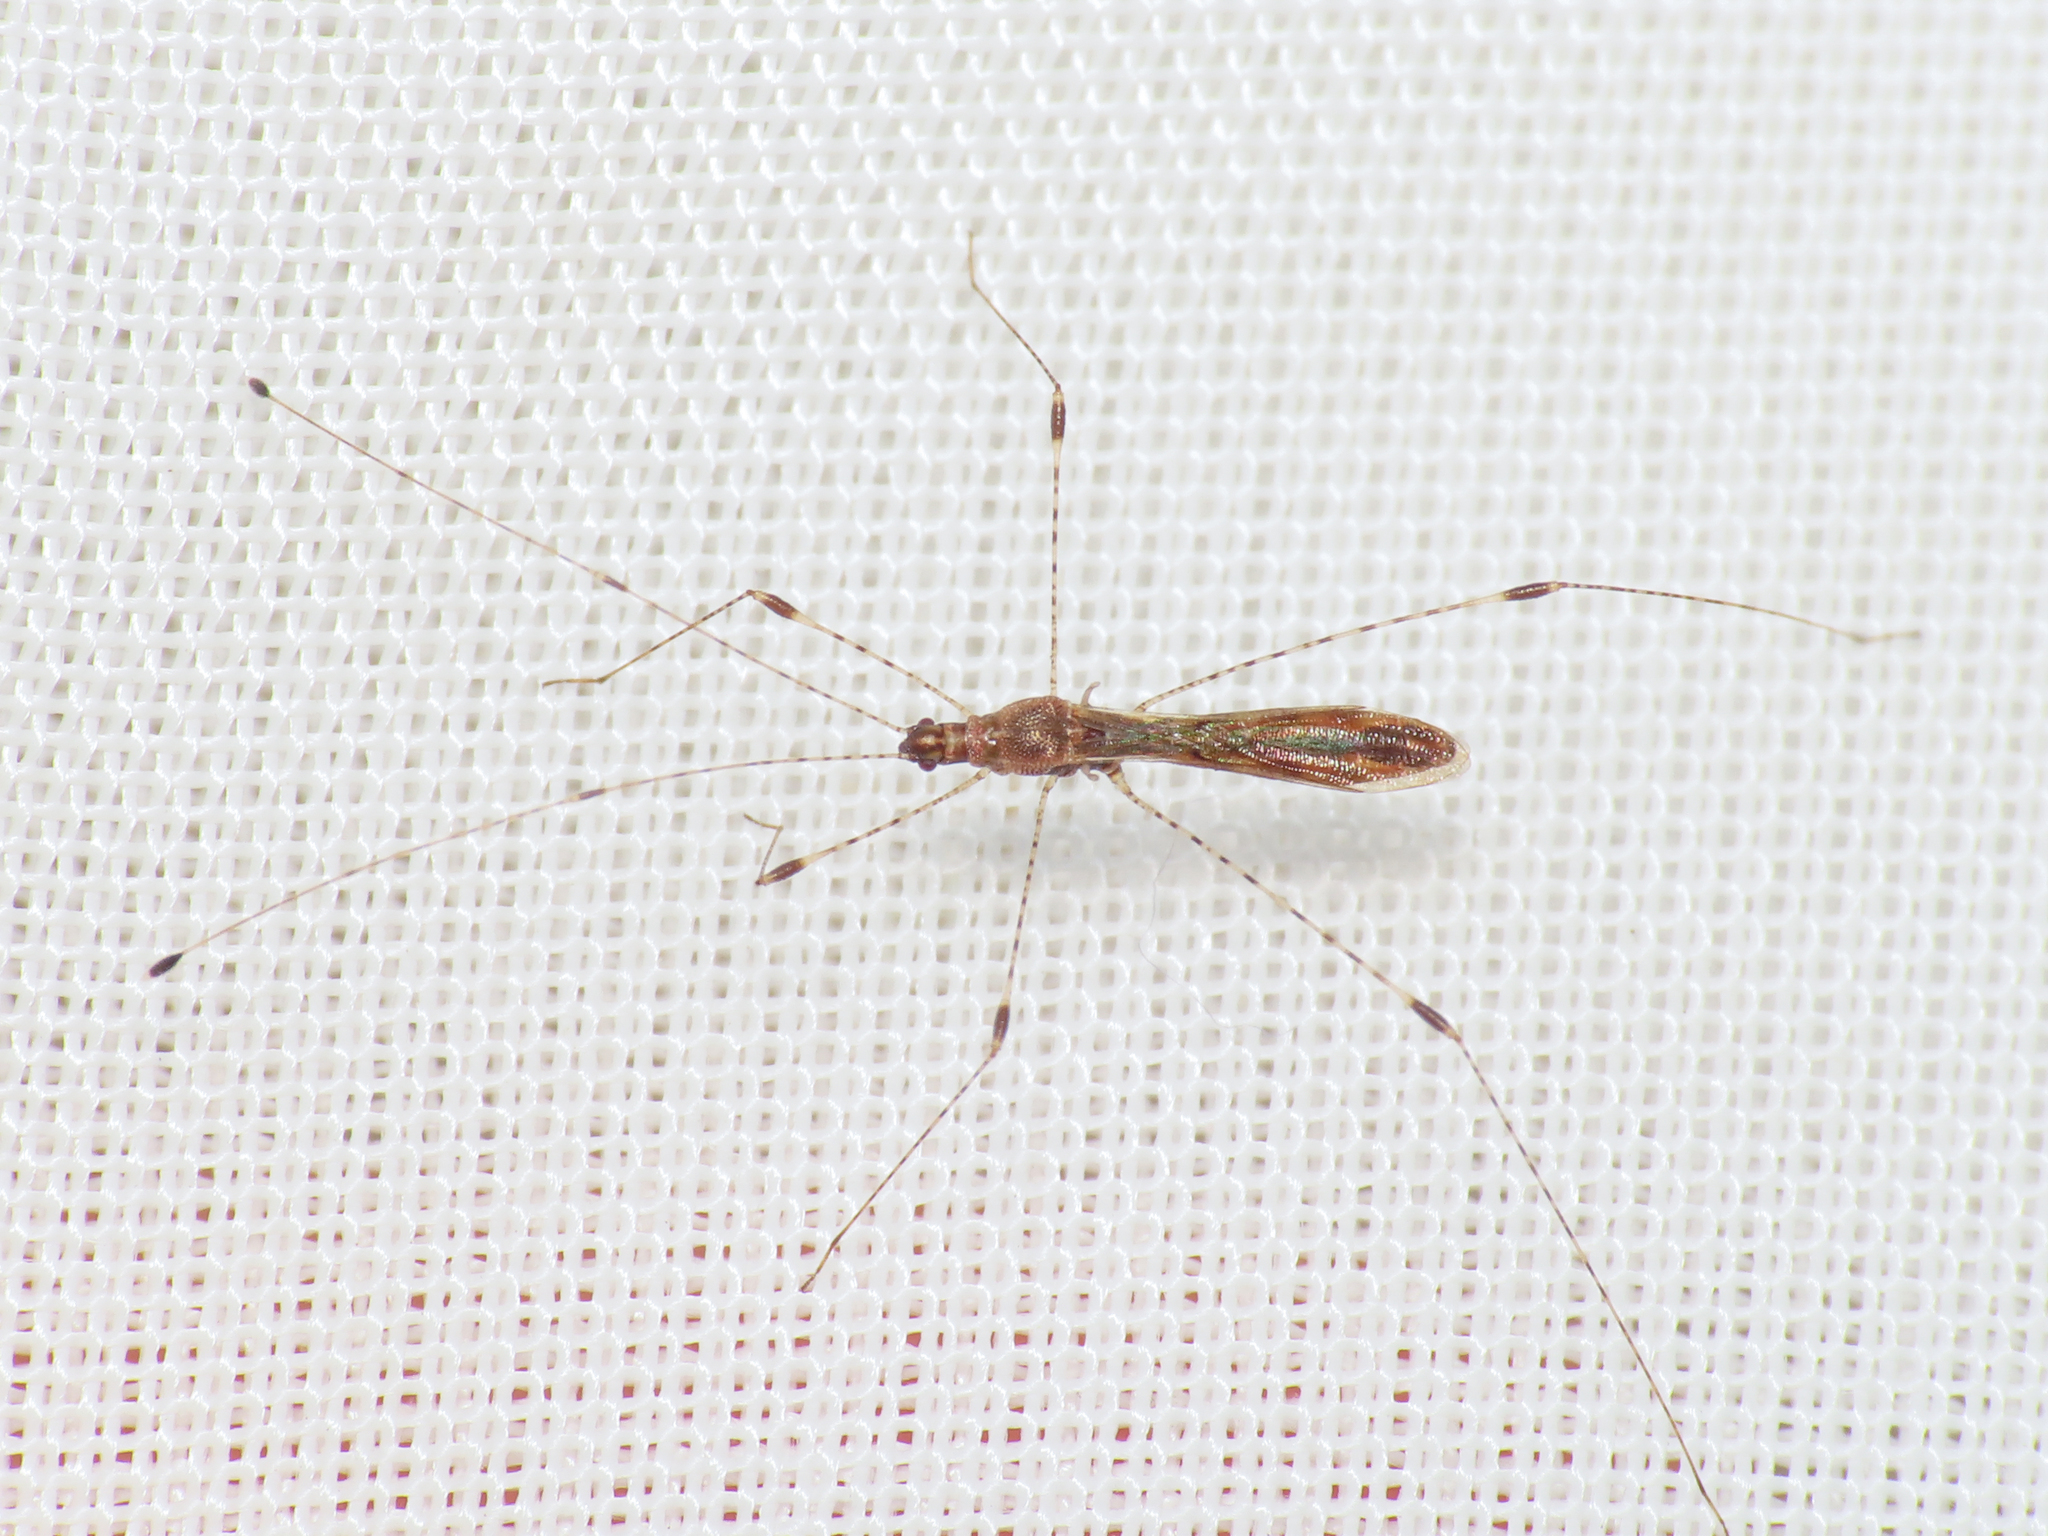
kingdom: Animalia
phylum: Arthropoda
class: Insecta
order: Hemiptera
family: Berytidae
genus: Metacanthus
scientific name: Metacanthus meridionalis
